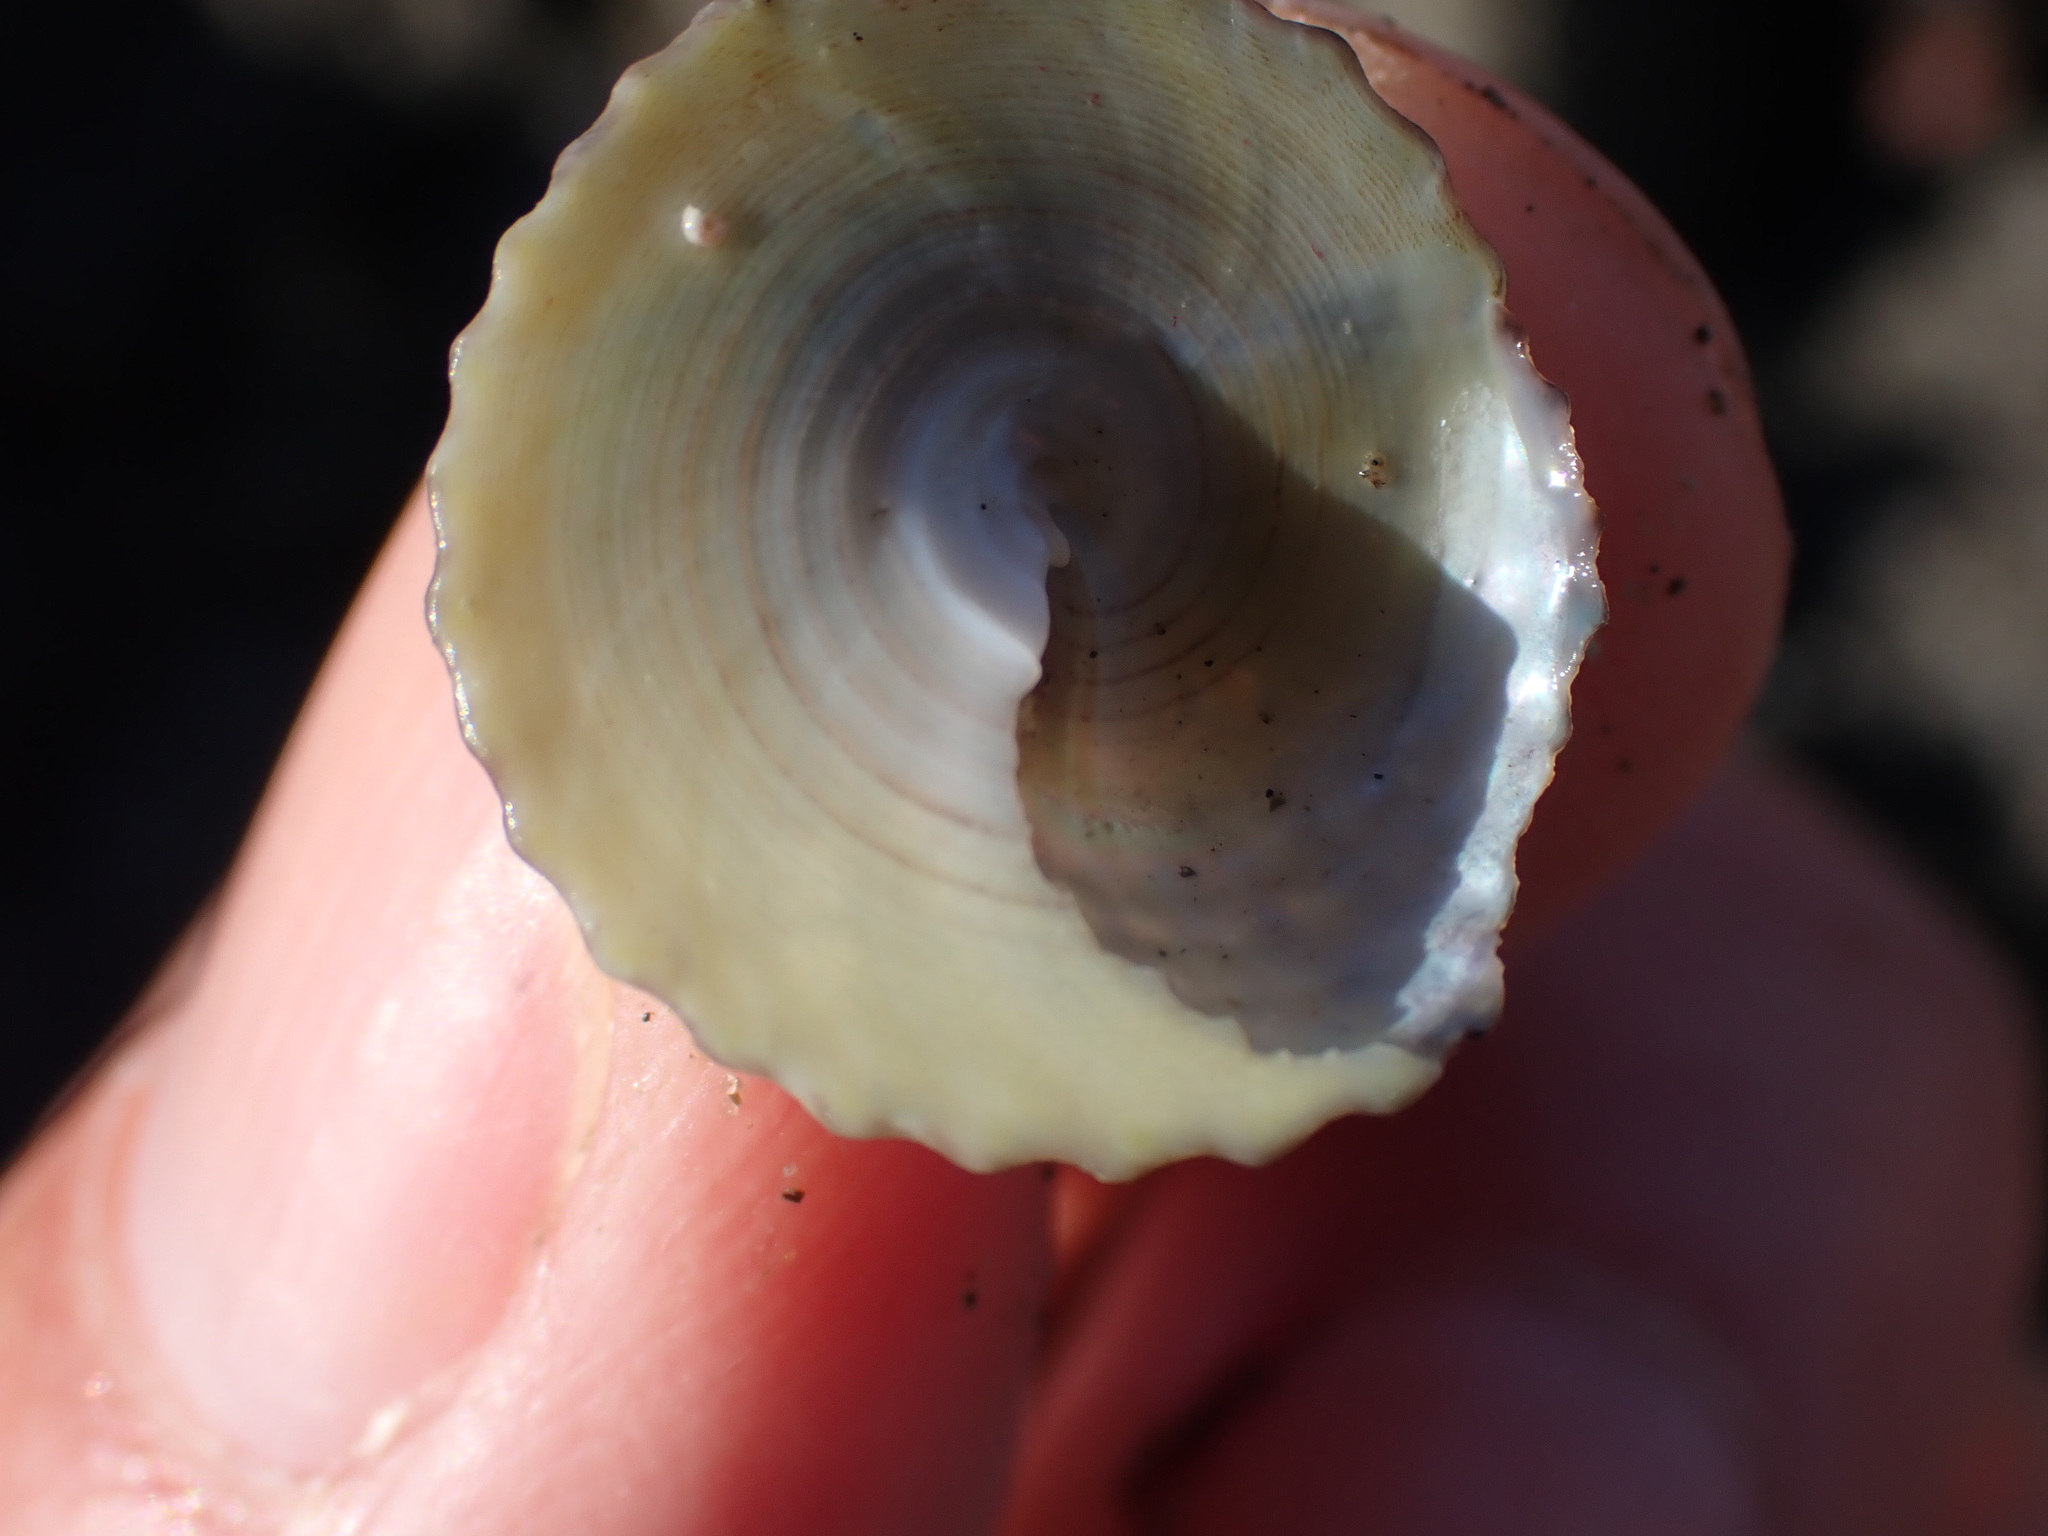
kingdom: Animalia
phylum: Mollusca
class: Gastropoda
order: Trochida
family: Trochidae
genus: Coelotrochus
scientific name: Coelotrochus viridis
